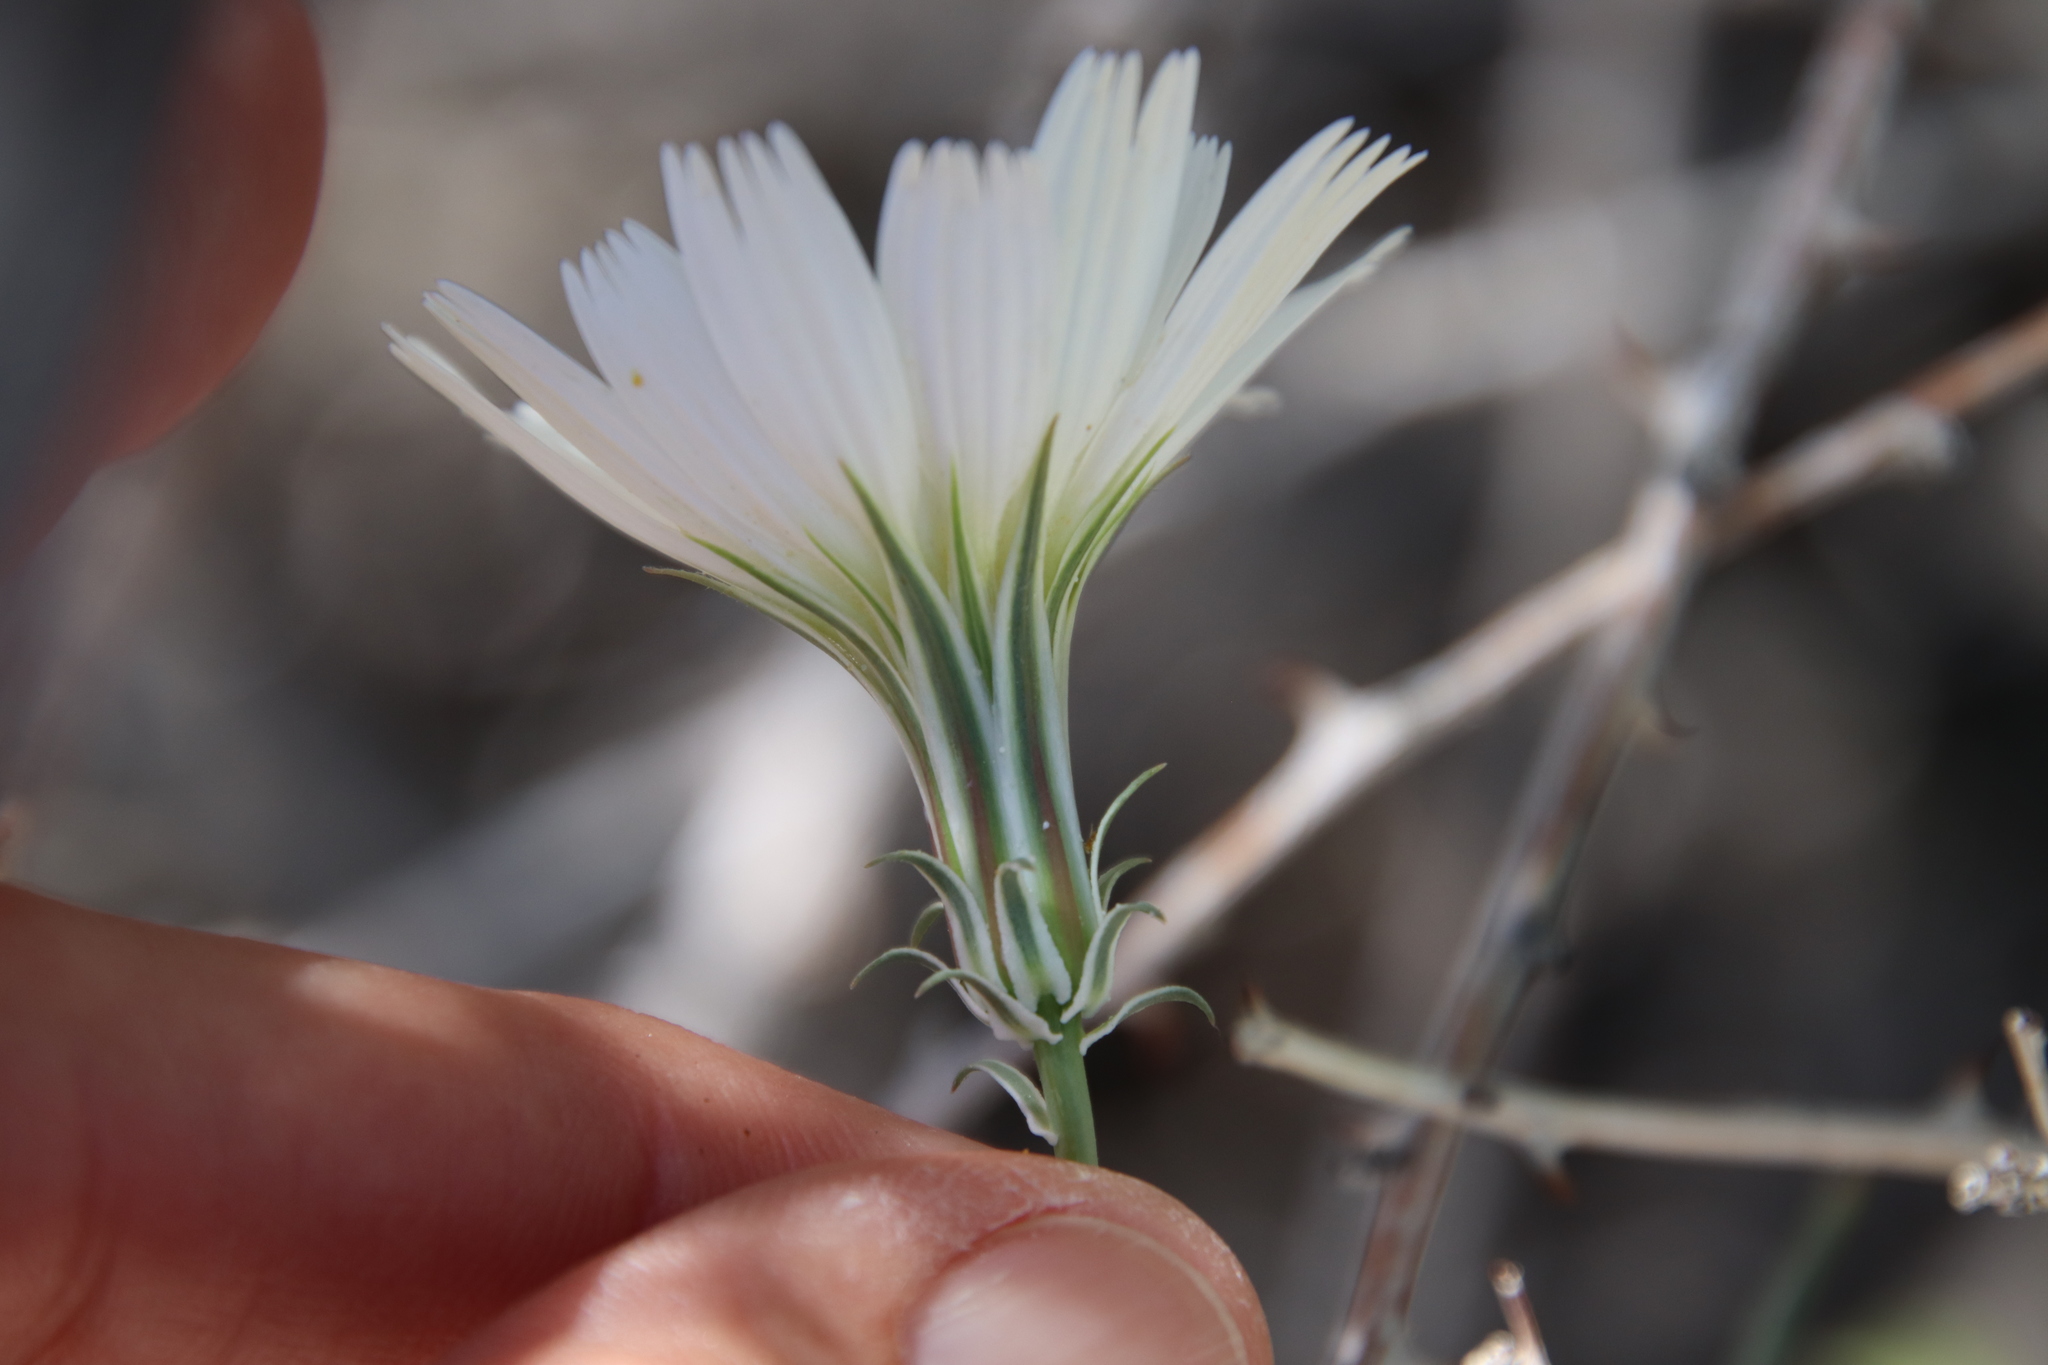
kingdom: Plantae
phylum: Tracheophyta
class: Magnoliopsida
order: Asterales
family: Asteraceae
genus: Rafinesquia
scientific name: Rafinesquia neomexicana
